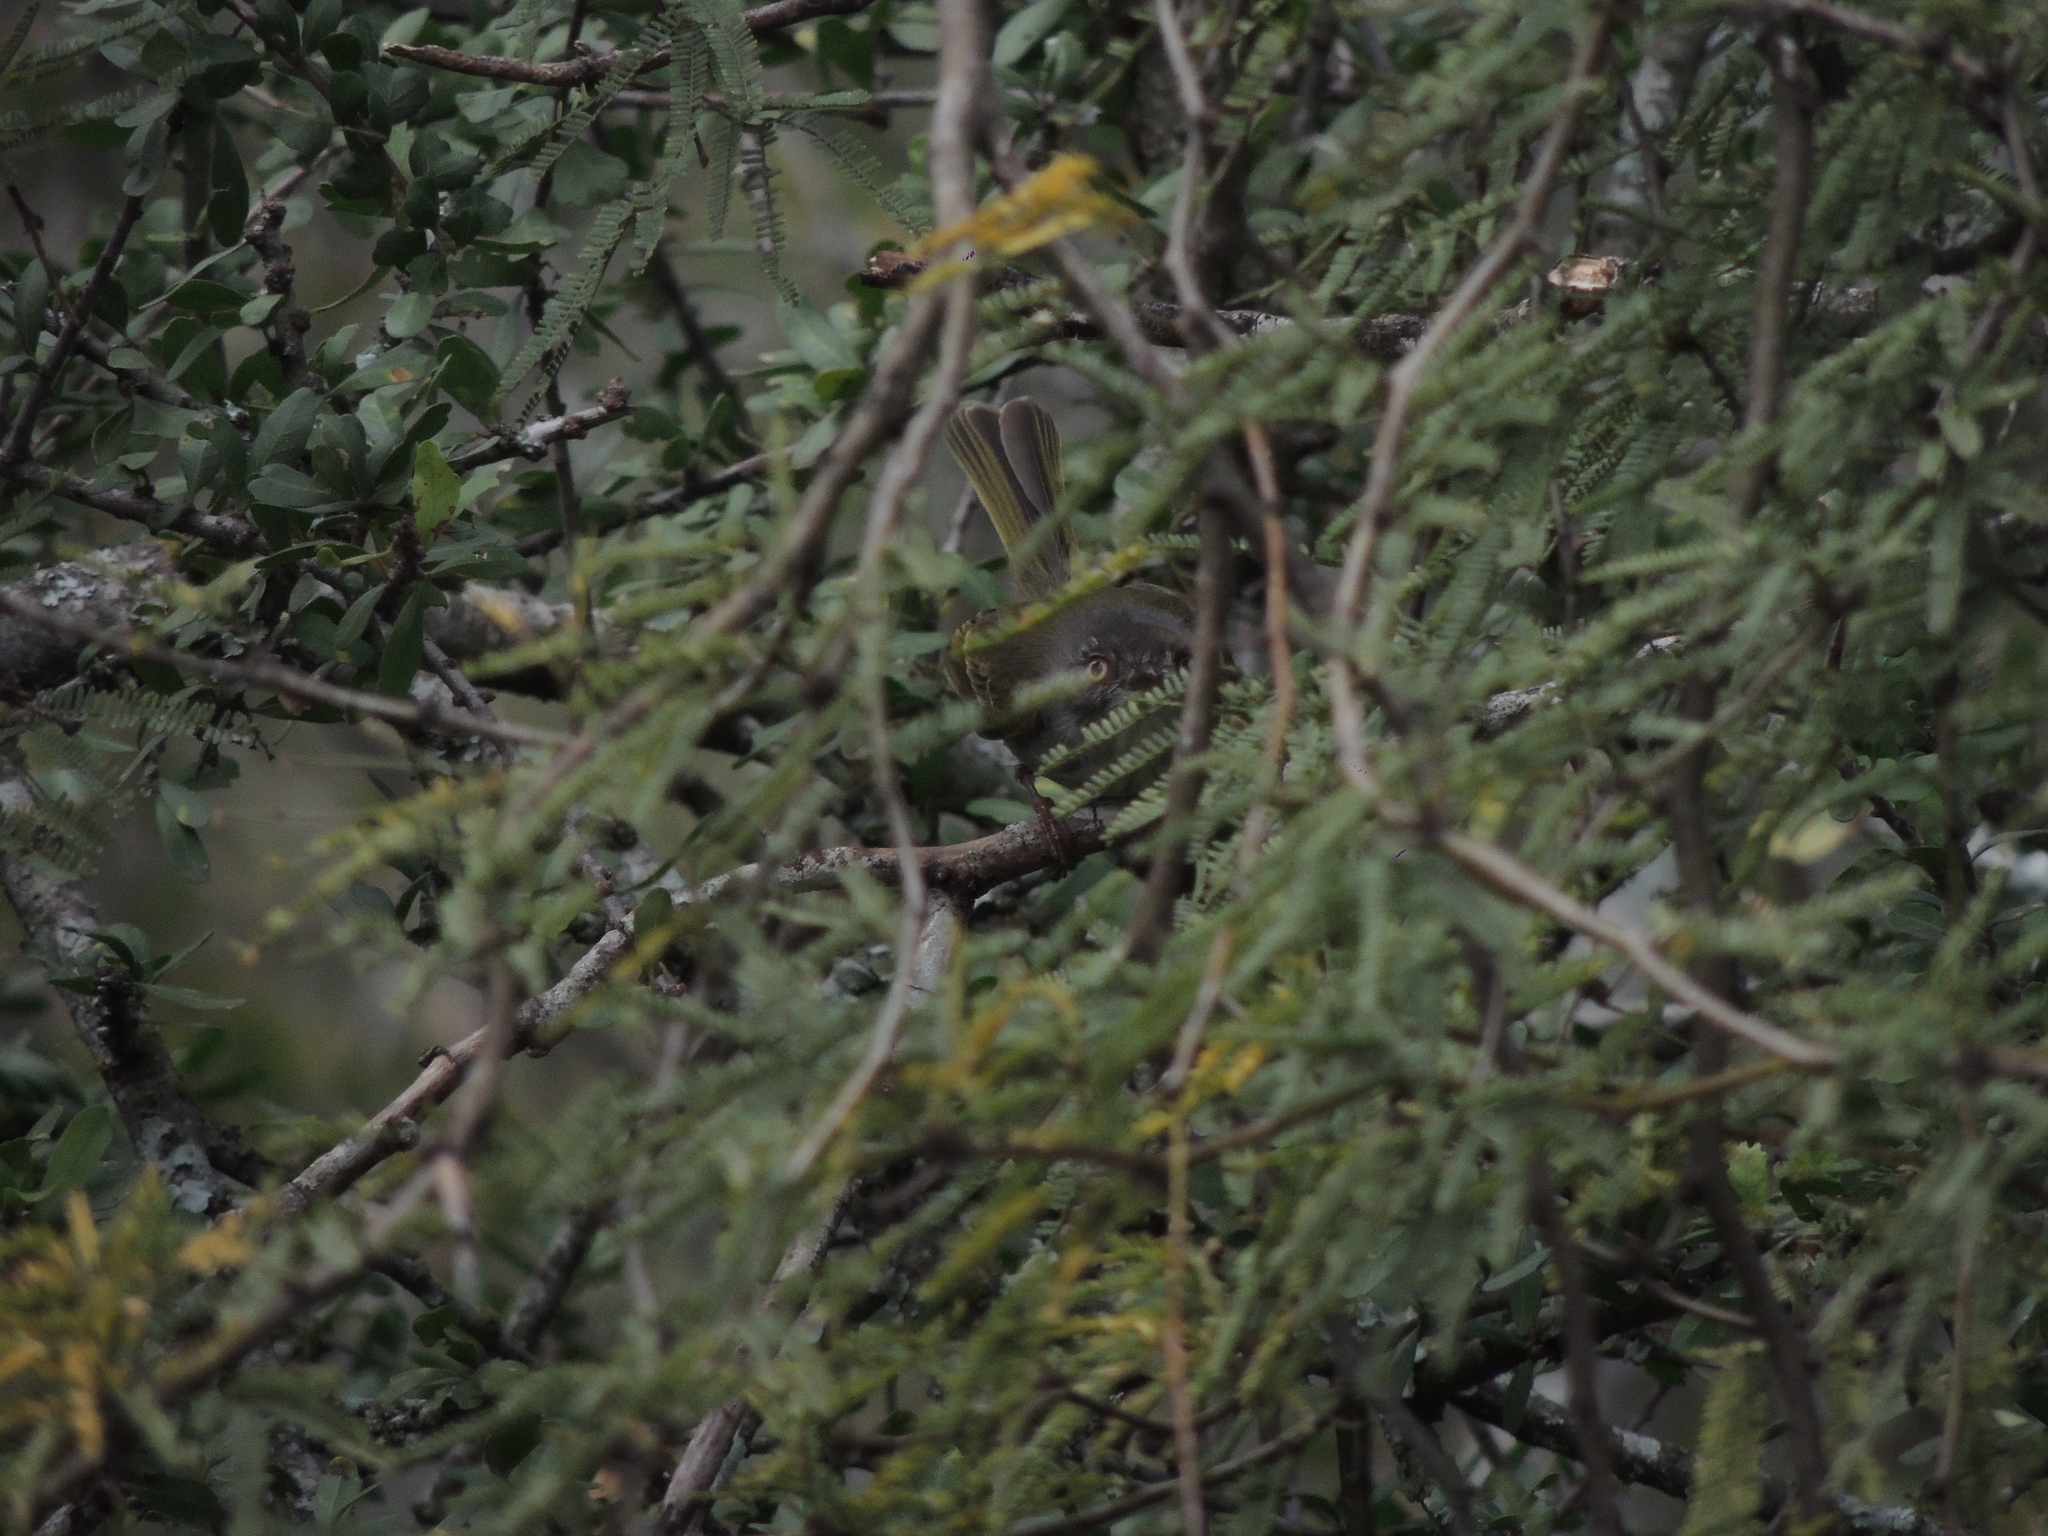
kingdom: Animalia
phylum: Chordata
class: Aves
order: Passeriformes
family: Tyrannidae
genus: Hemitriccus
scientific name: Hemitriccus margaritaceiventer
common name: Pearly-vented tody-tyrant
